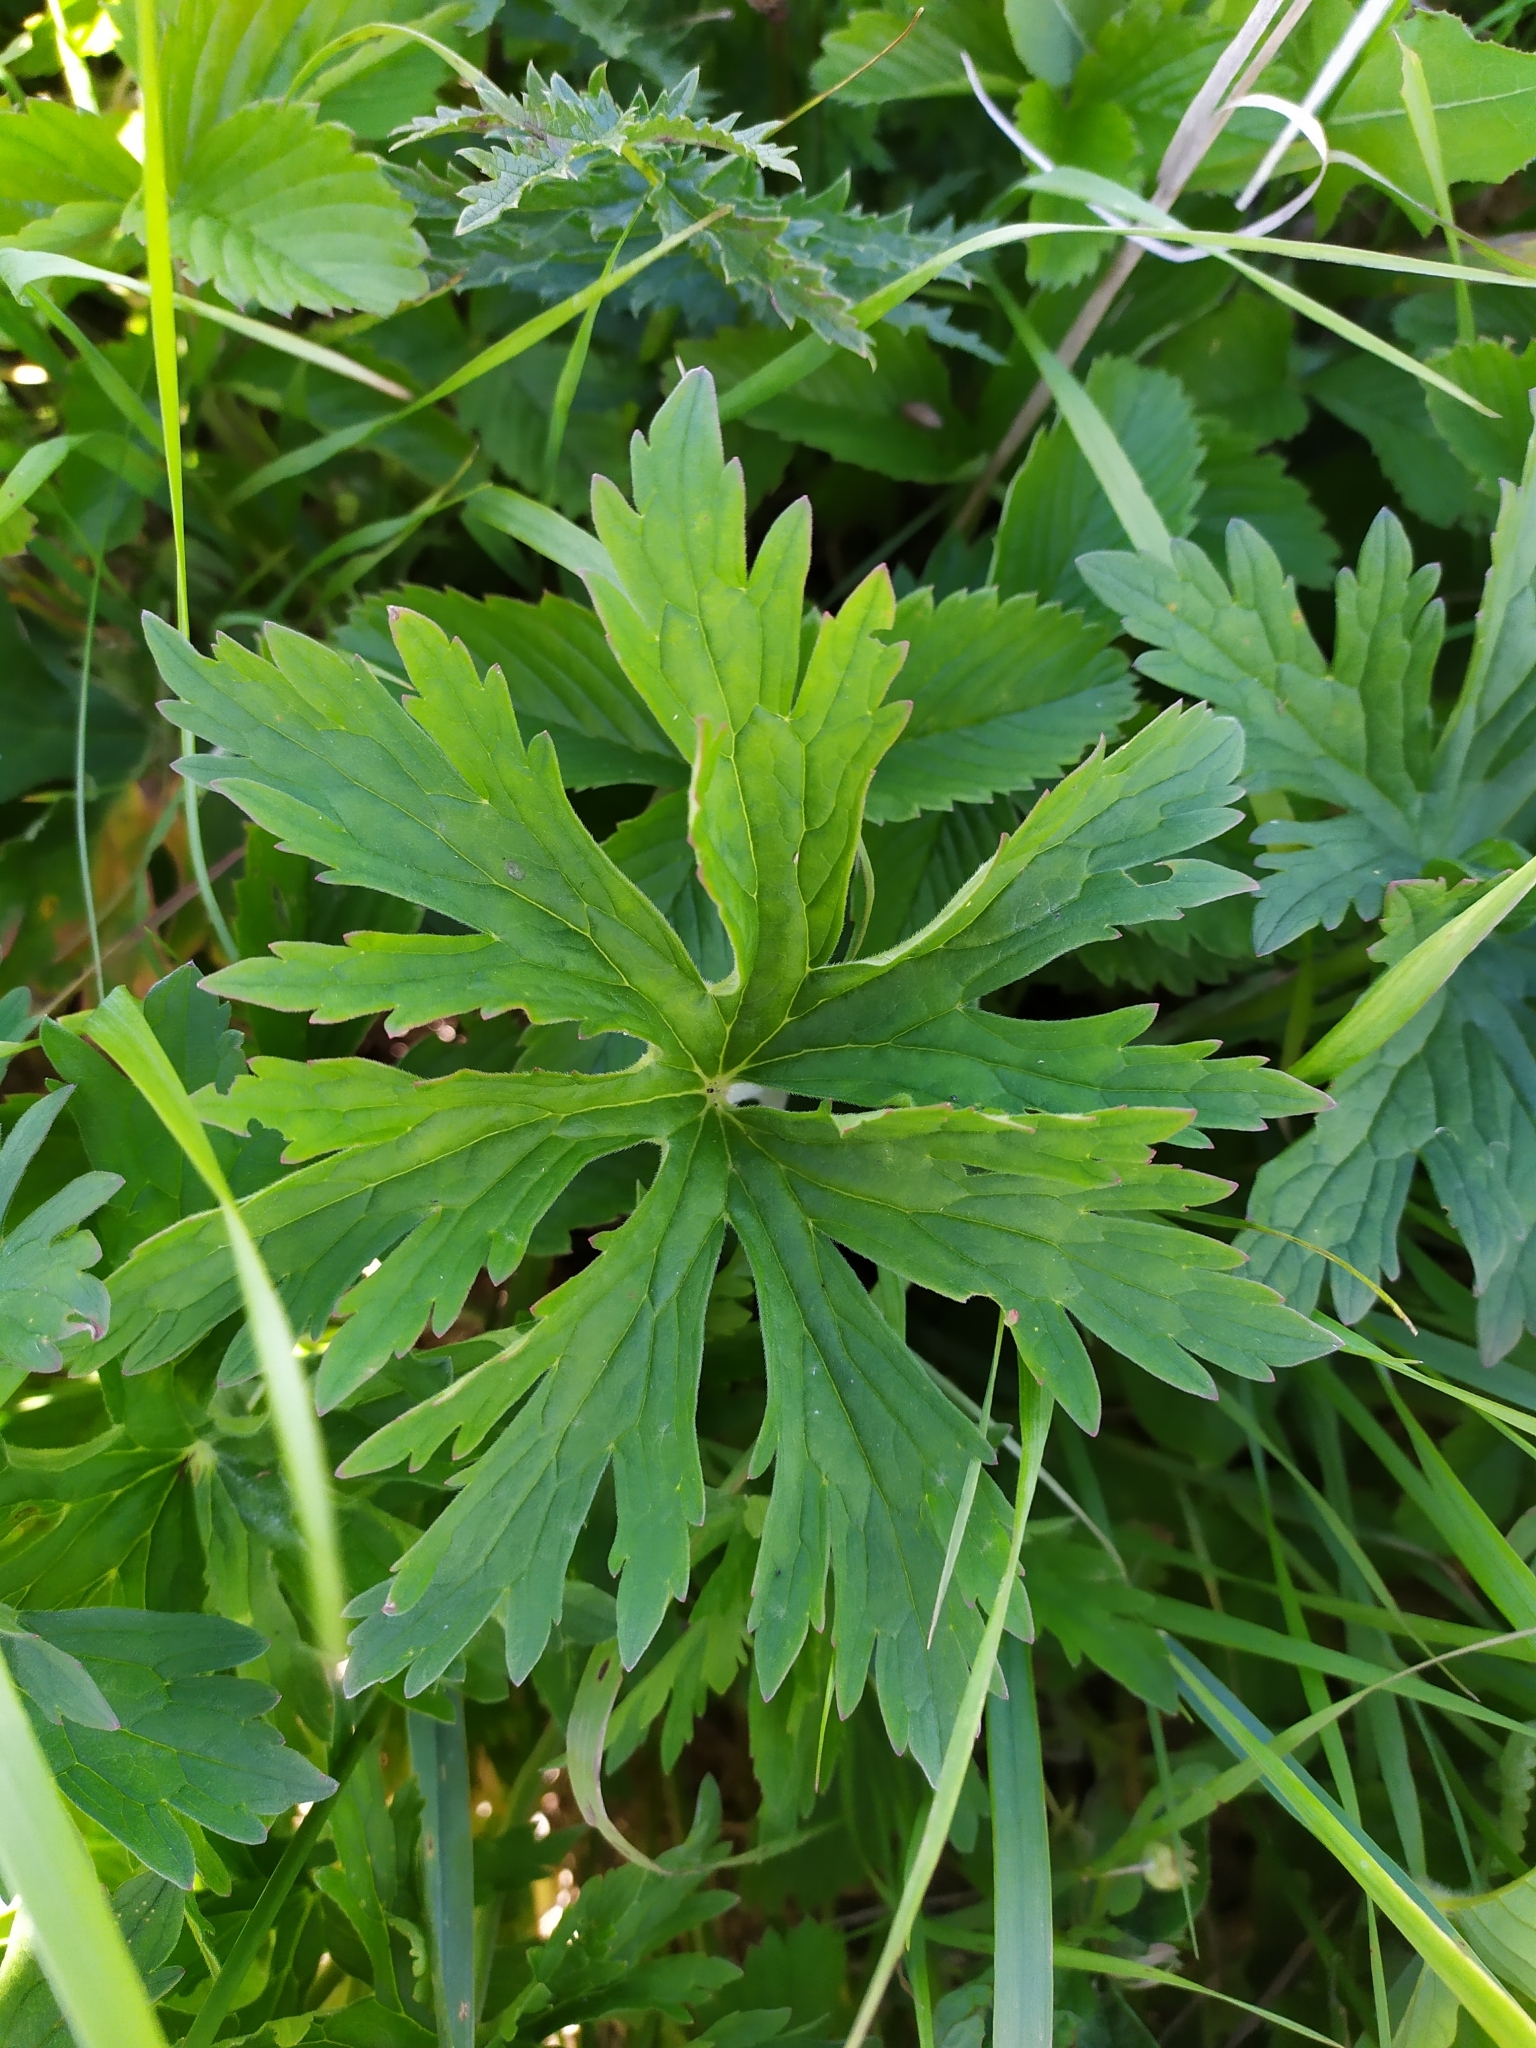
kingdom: Plantae
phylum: Tracheophyta
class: Magnoliopsida
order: Geraniales
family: Geraniaceae
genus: Geranium
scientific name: Geranium pratense
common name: Meadow crane's-bill
